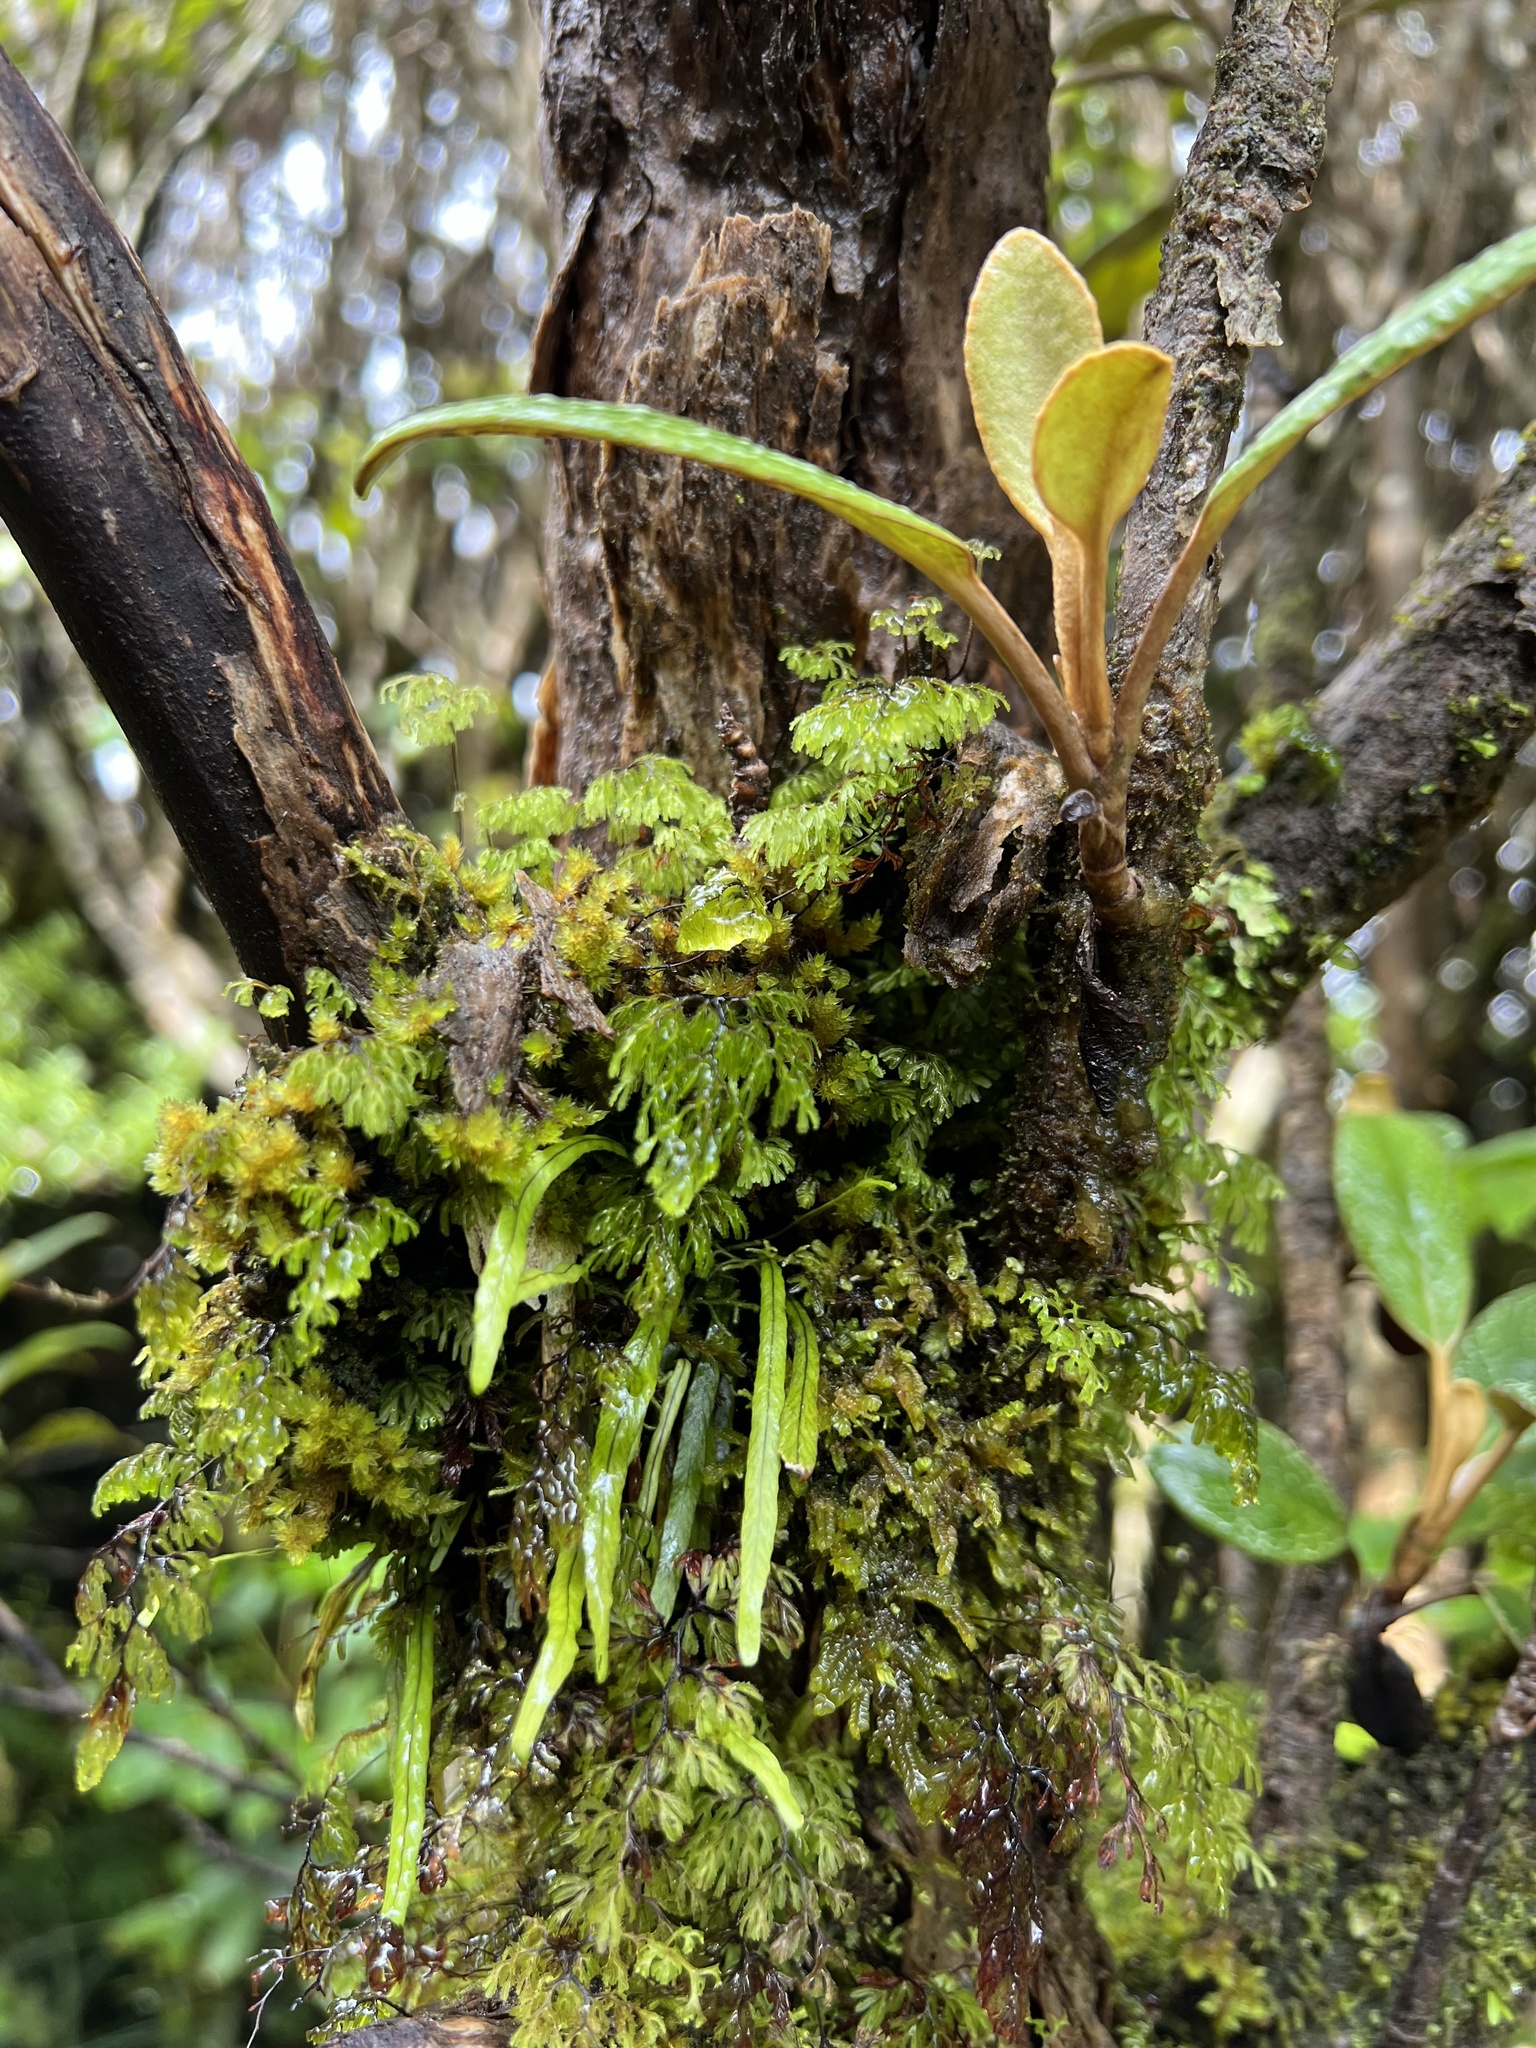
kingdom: Plantae
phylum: Tracheophyta
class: Polypodiopsida
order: Polypodiales
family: Polypodiaceae
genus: Notogrammitis
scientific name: Notogrammitis angustifolia
